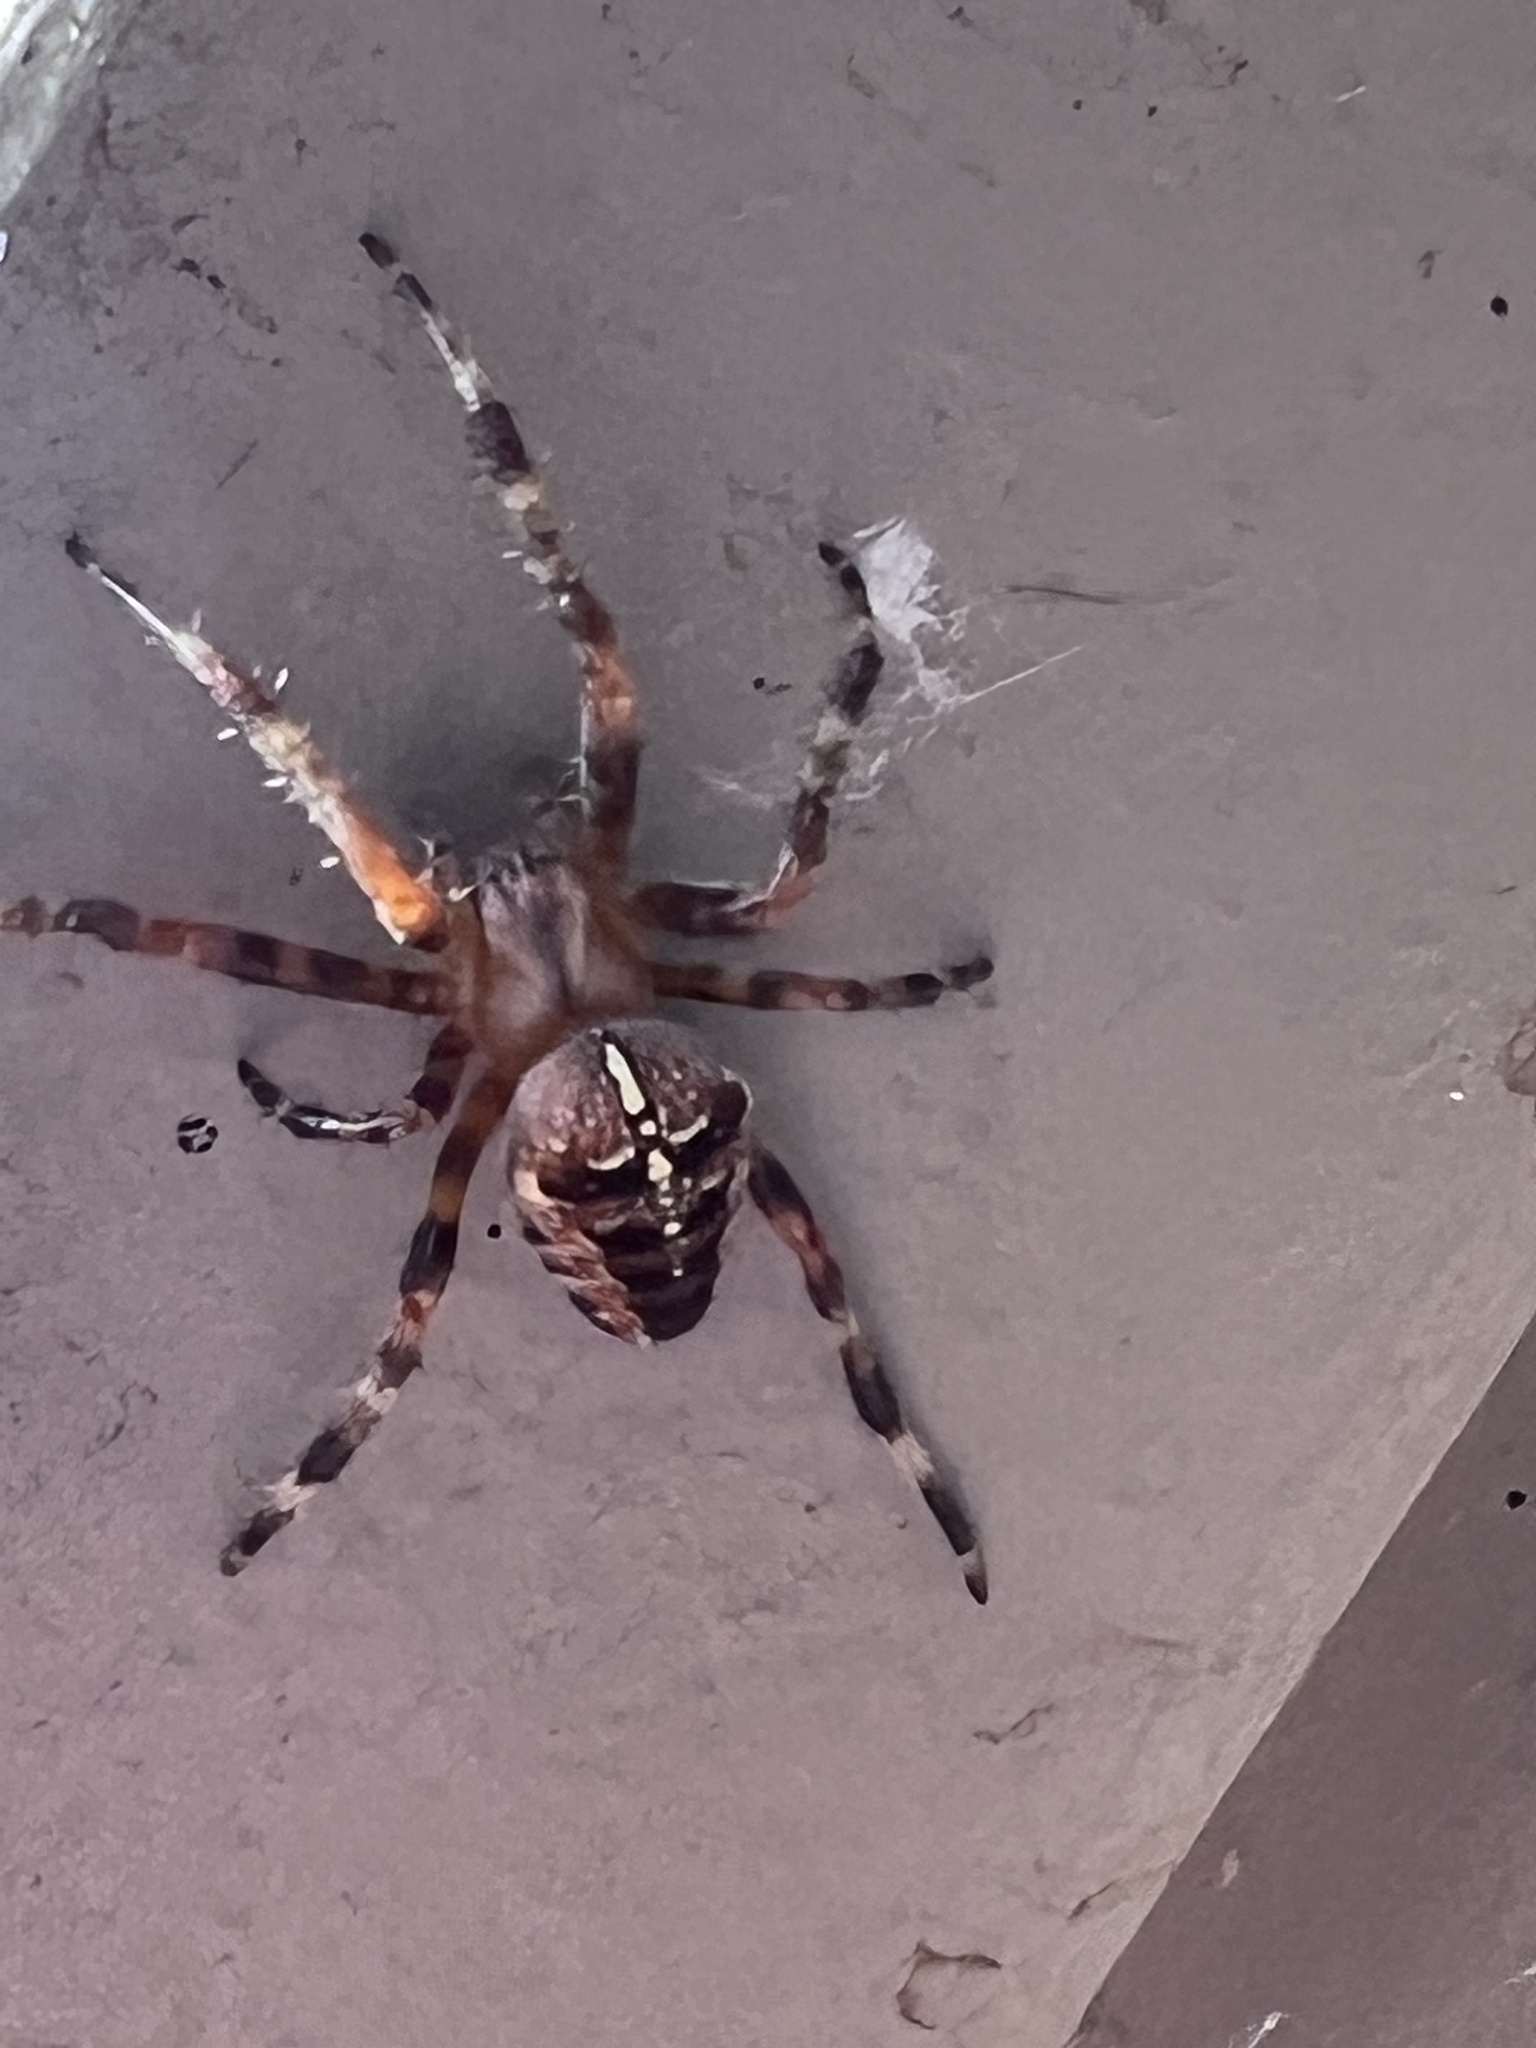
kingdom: Animalia
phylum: Arthropoda
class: Arachnida
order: Araneae
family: Araneidae
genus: Araneus
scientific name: Araneus diadematus
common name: Cross orbweaver
